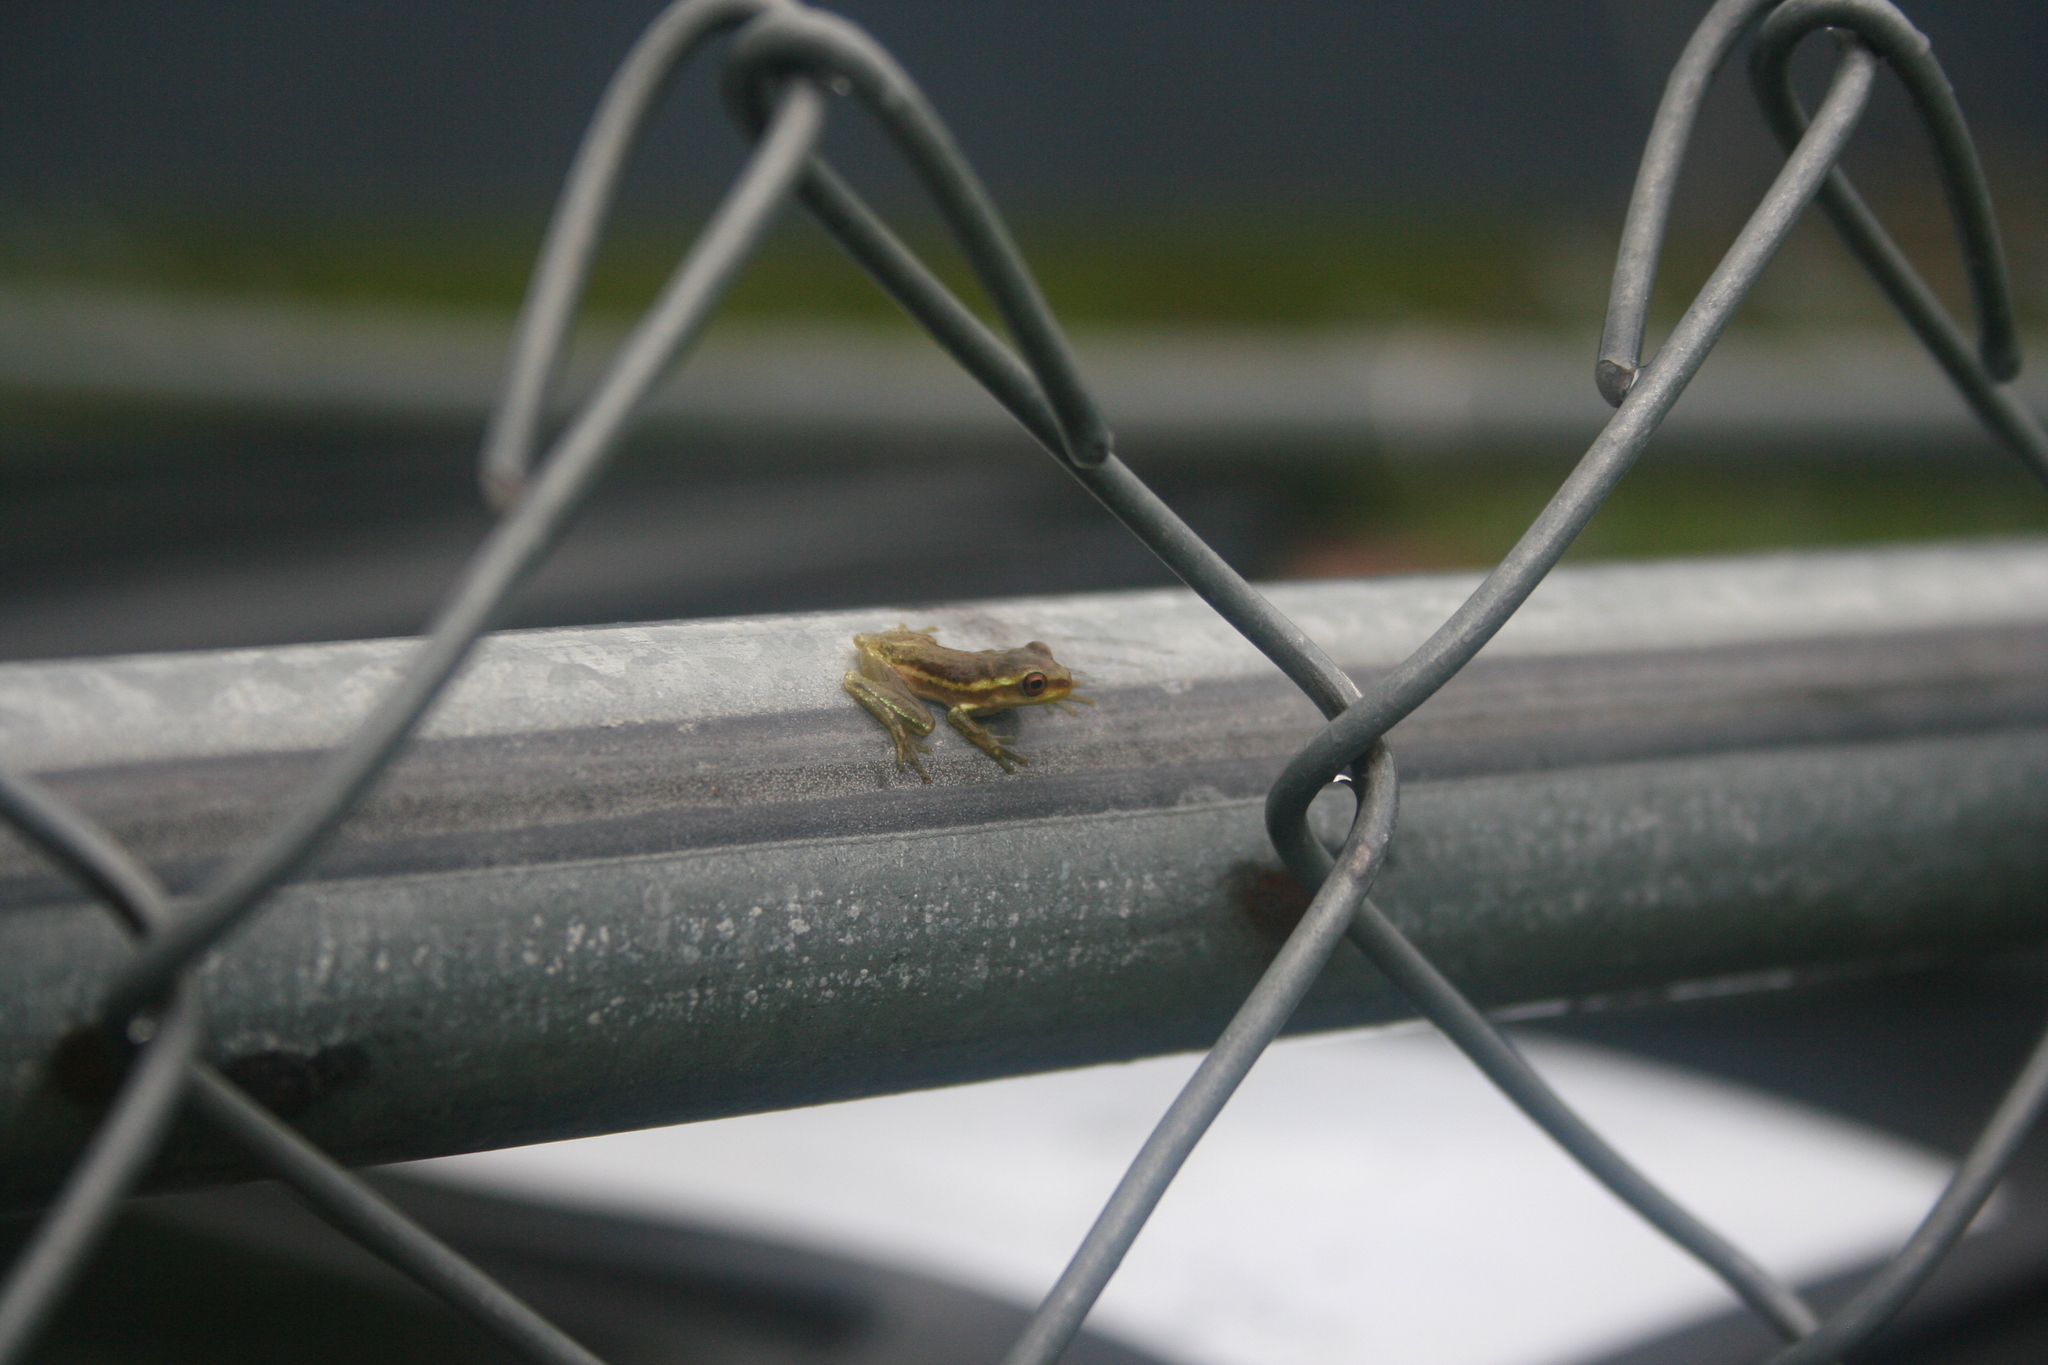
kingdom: Animalia
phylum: Chordata
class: Amphibia
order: Anura
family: Hylidae
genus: Osteopilus
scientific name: Osteopilus septentrionalis
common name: Cuban treefrog
